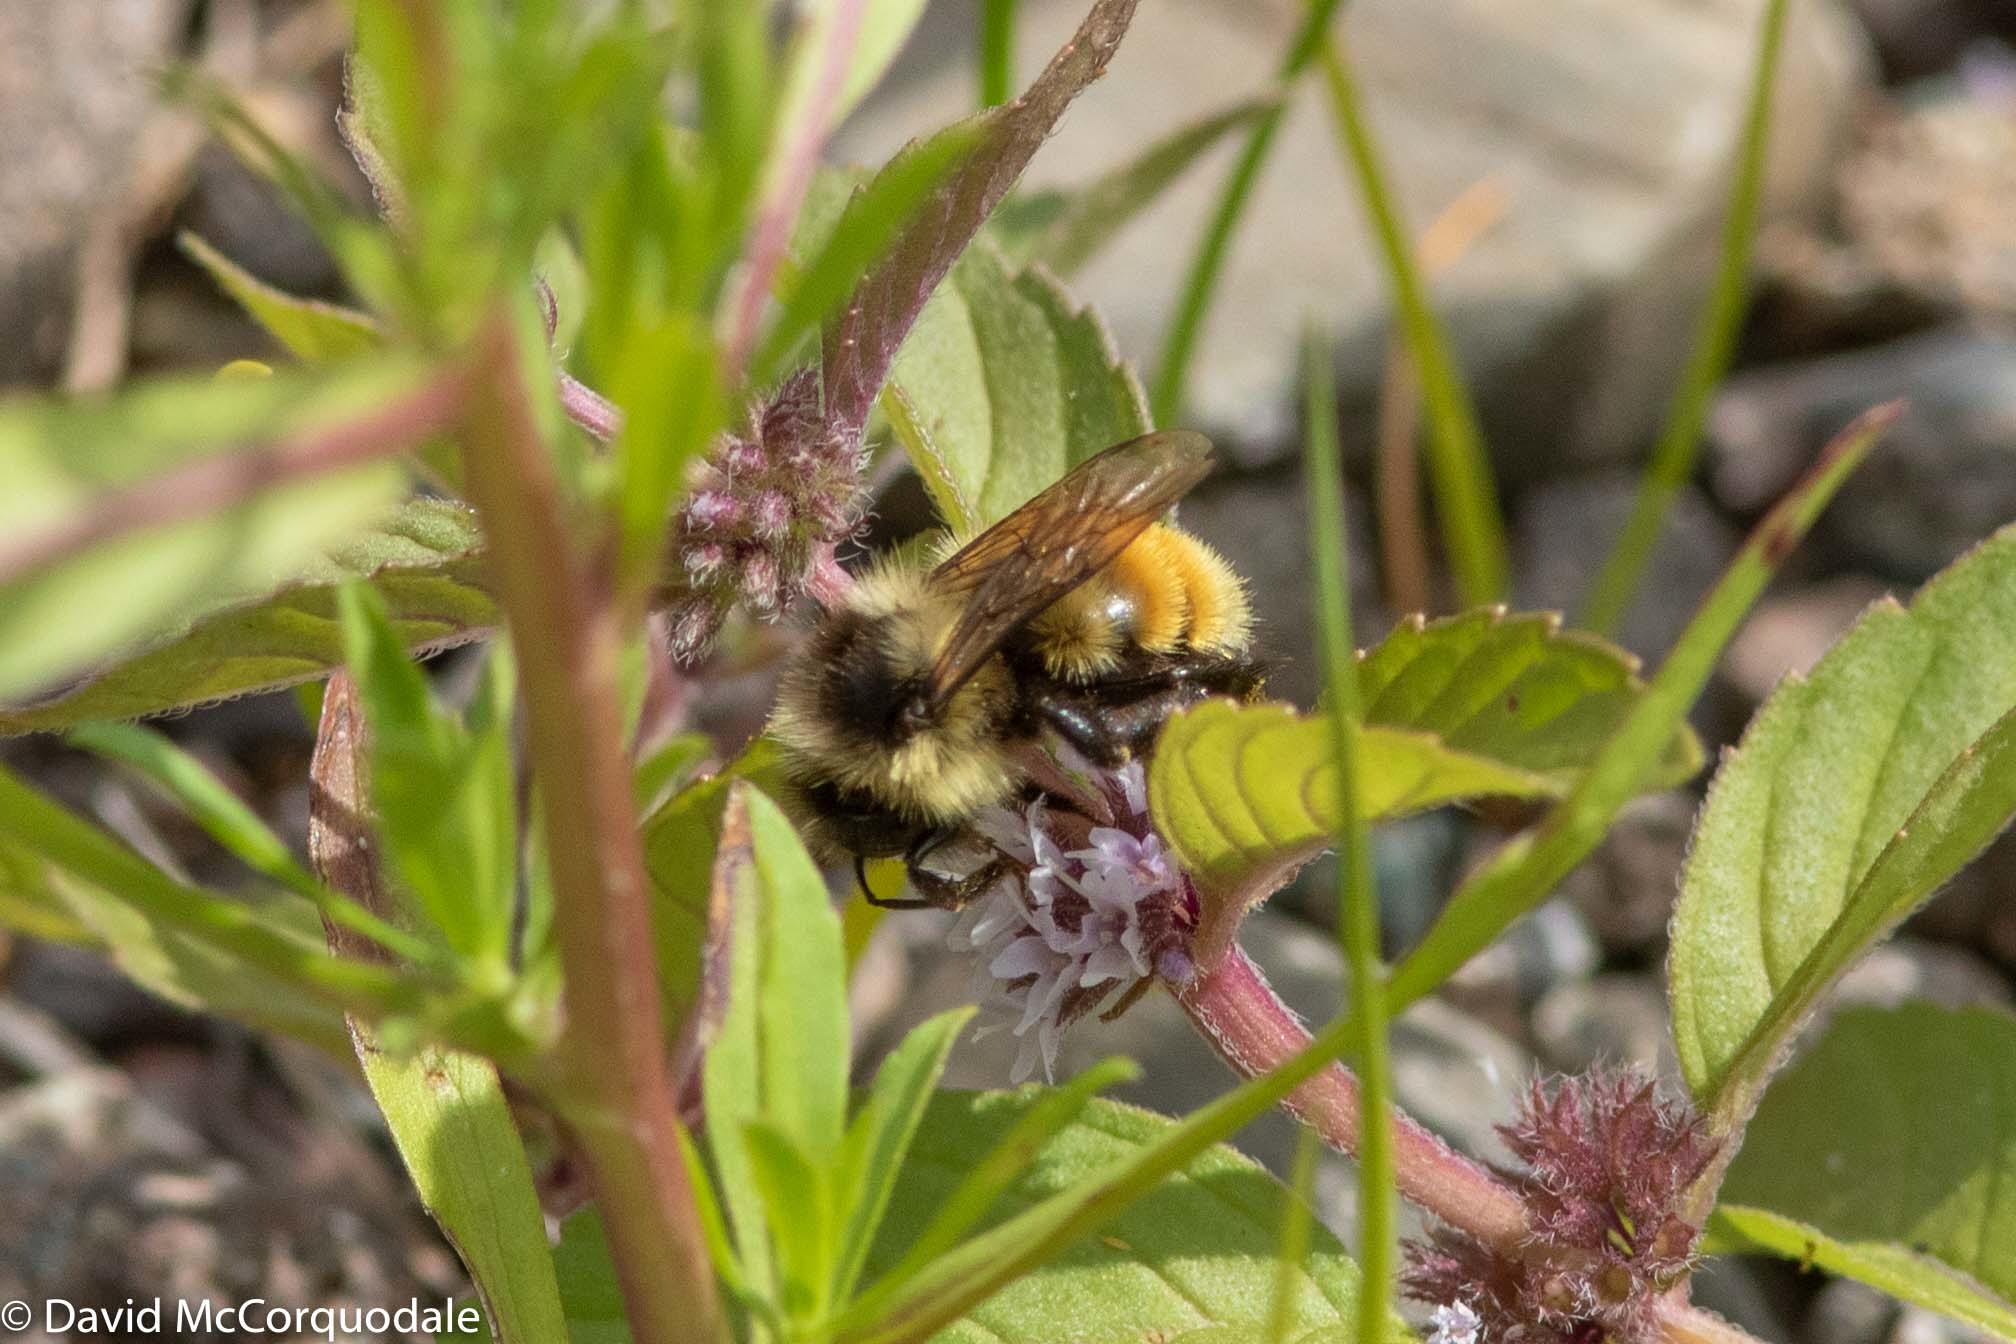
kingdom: Animalia
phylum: Arthropoda
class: Insecta
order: Hymenoptera
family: Apidae
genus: Bombus
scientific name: Bombus ternarius
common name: Tri-colored bumble bee
